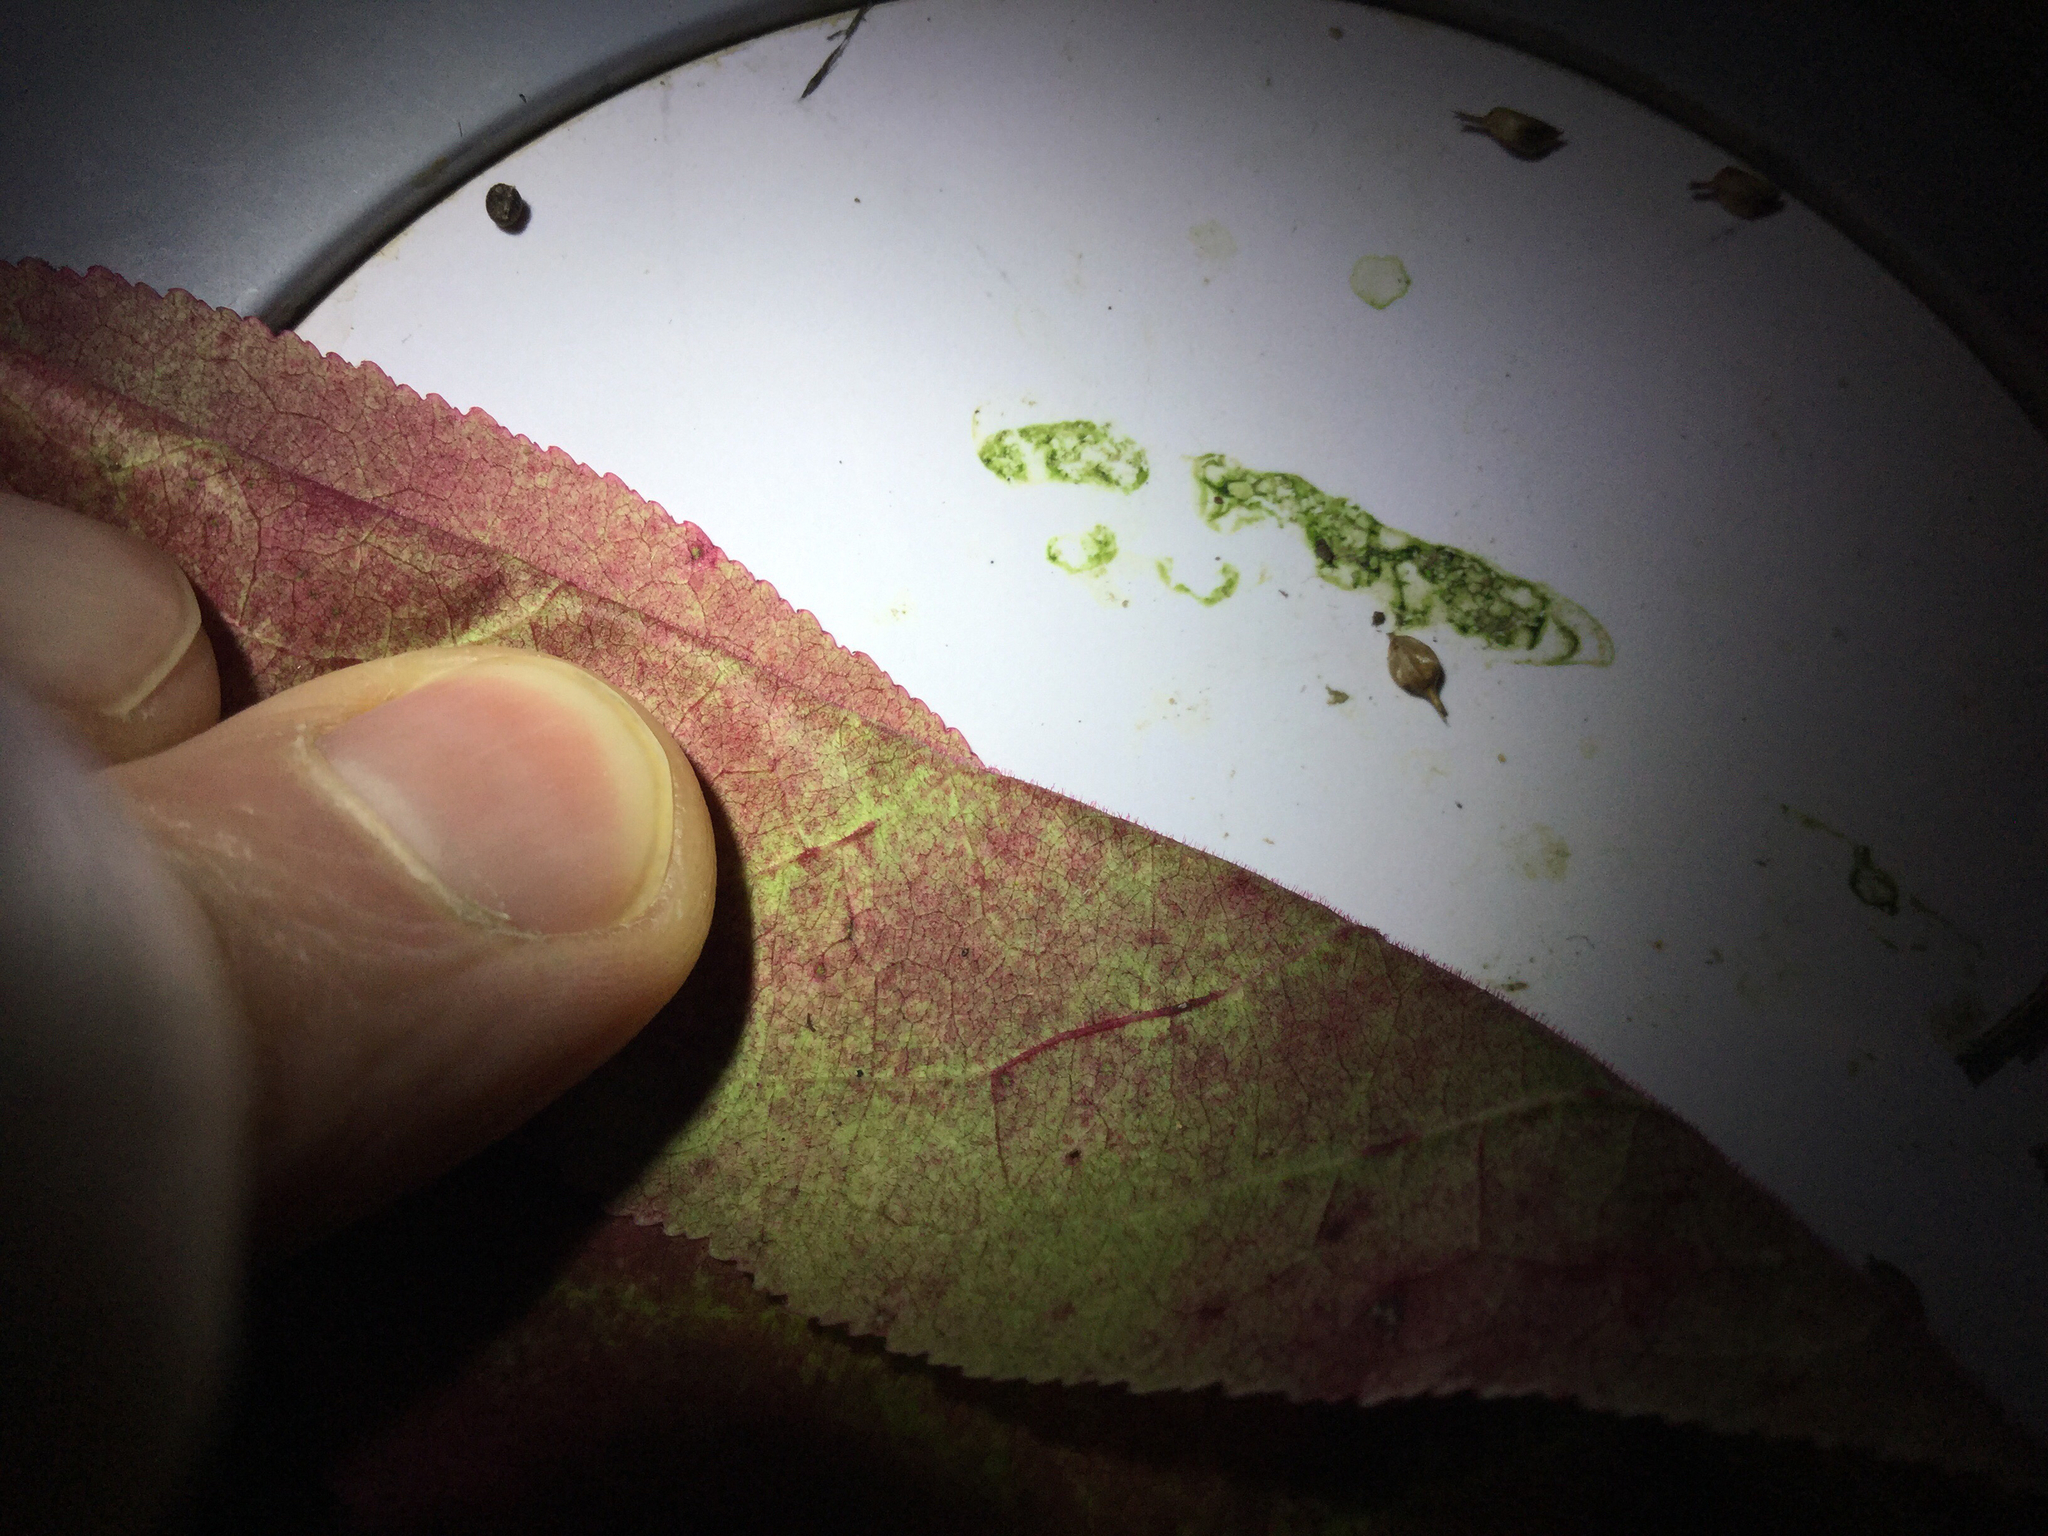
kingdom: Plantae
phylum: Tracheophyta
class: Magnoliopsida
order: Celastrales
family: Celastraceae
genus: Euonymus
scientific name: Euonymus atropurpureus
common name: Eastern wahoo
